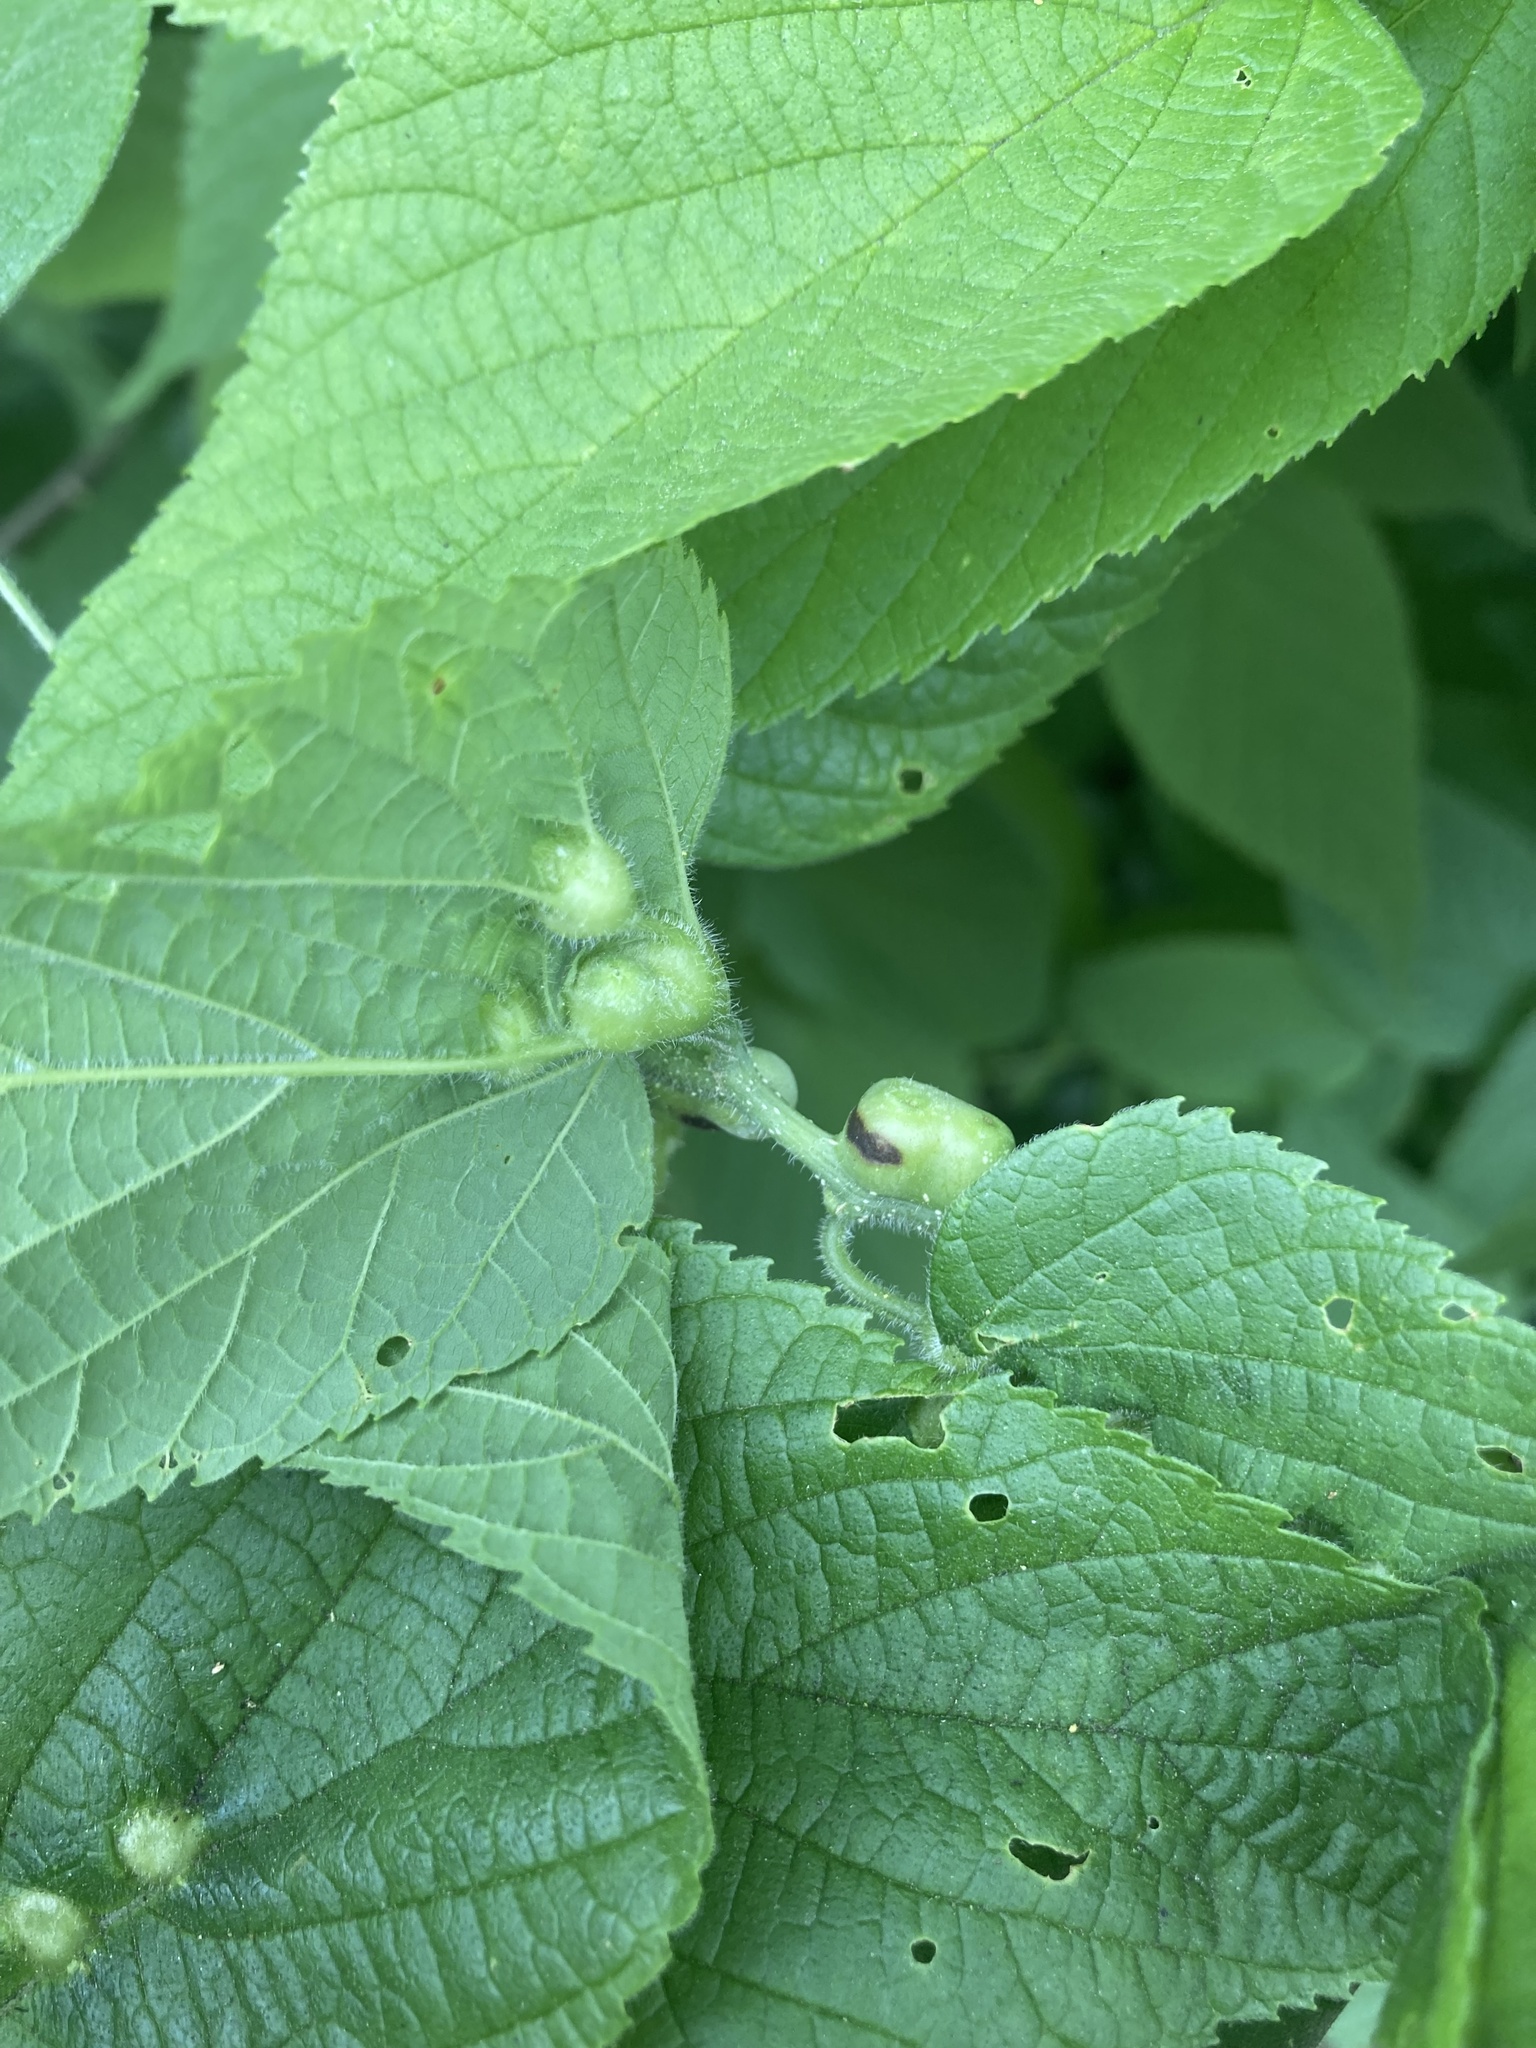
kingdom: Animalia
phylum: Arthropoda
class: Insecta
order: Diptera
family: Cecidomyiidae
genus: Celticecis
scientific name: Celticecis expulsa
